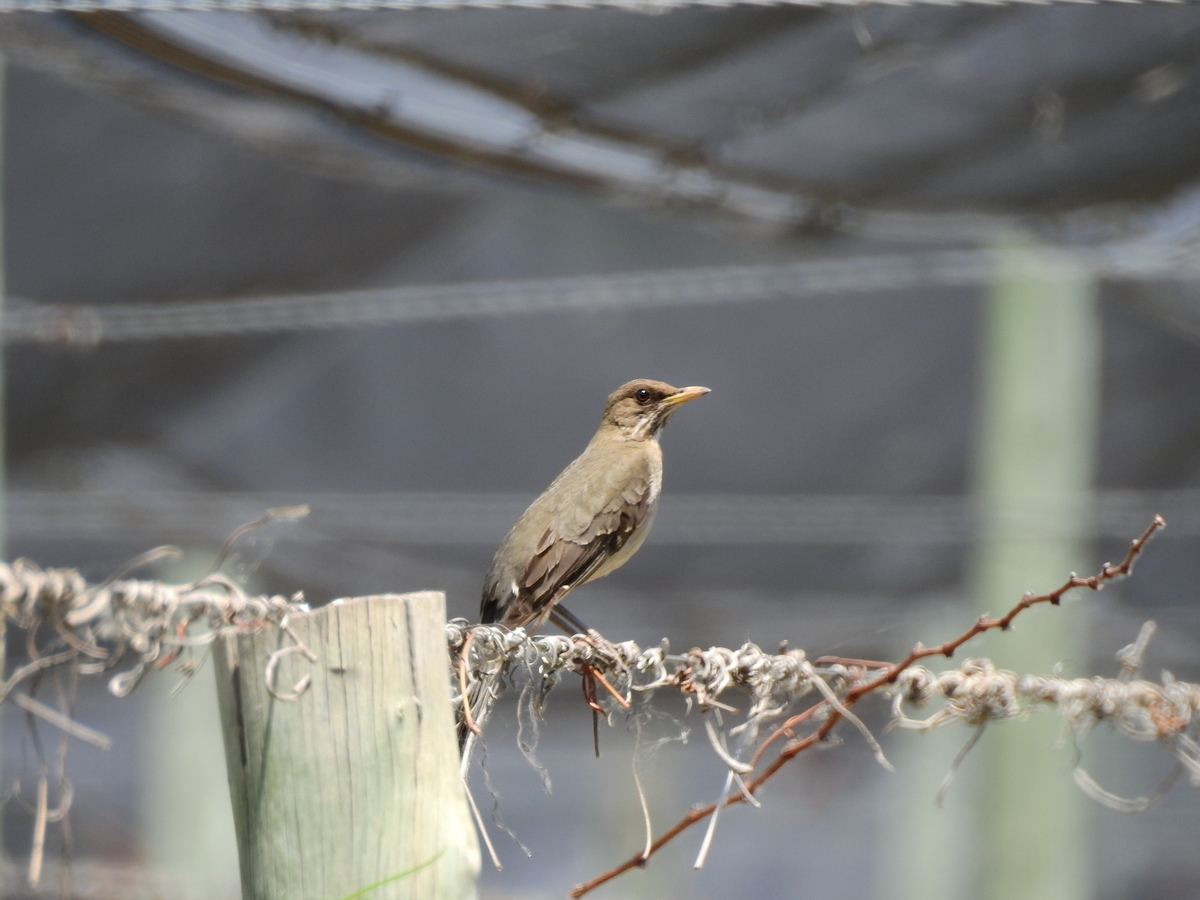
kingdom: Animalia
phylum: Chordata
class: Aves
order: Passeriformes
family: Turdidae
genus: Turdus
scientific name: Turdus amaurochalinus
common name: Creamy-bellied thrush
